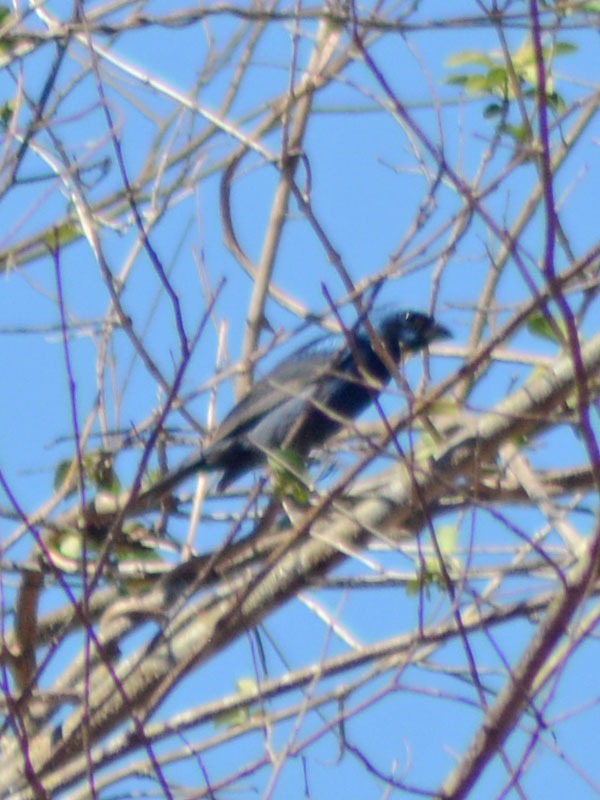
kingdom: Animalia
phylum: Chordata
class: Aves
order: Passeriformes
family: Cardinalidae
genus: Cyanocompsa
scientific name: Cyanocompsa parellina
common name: Blue bunting
